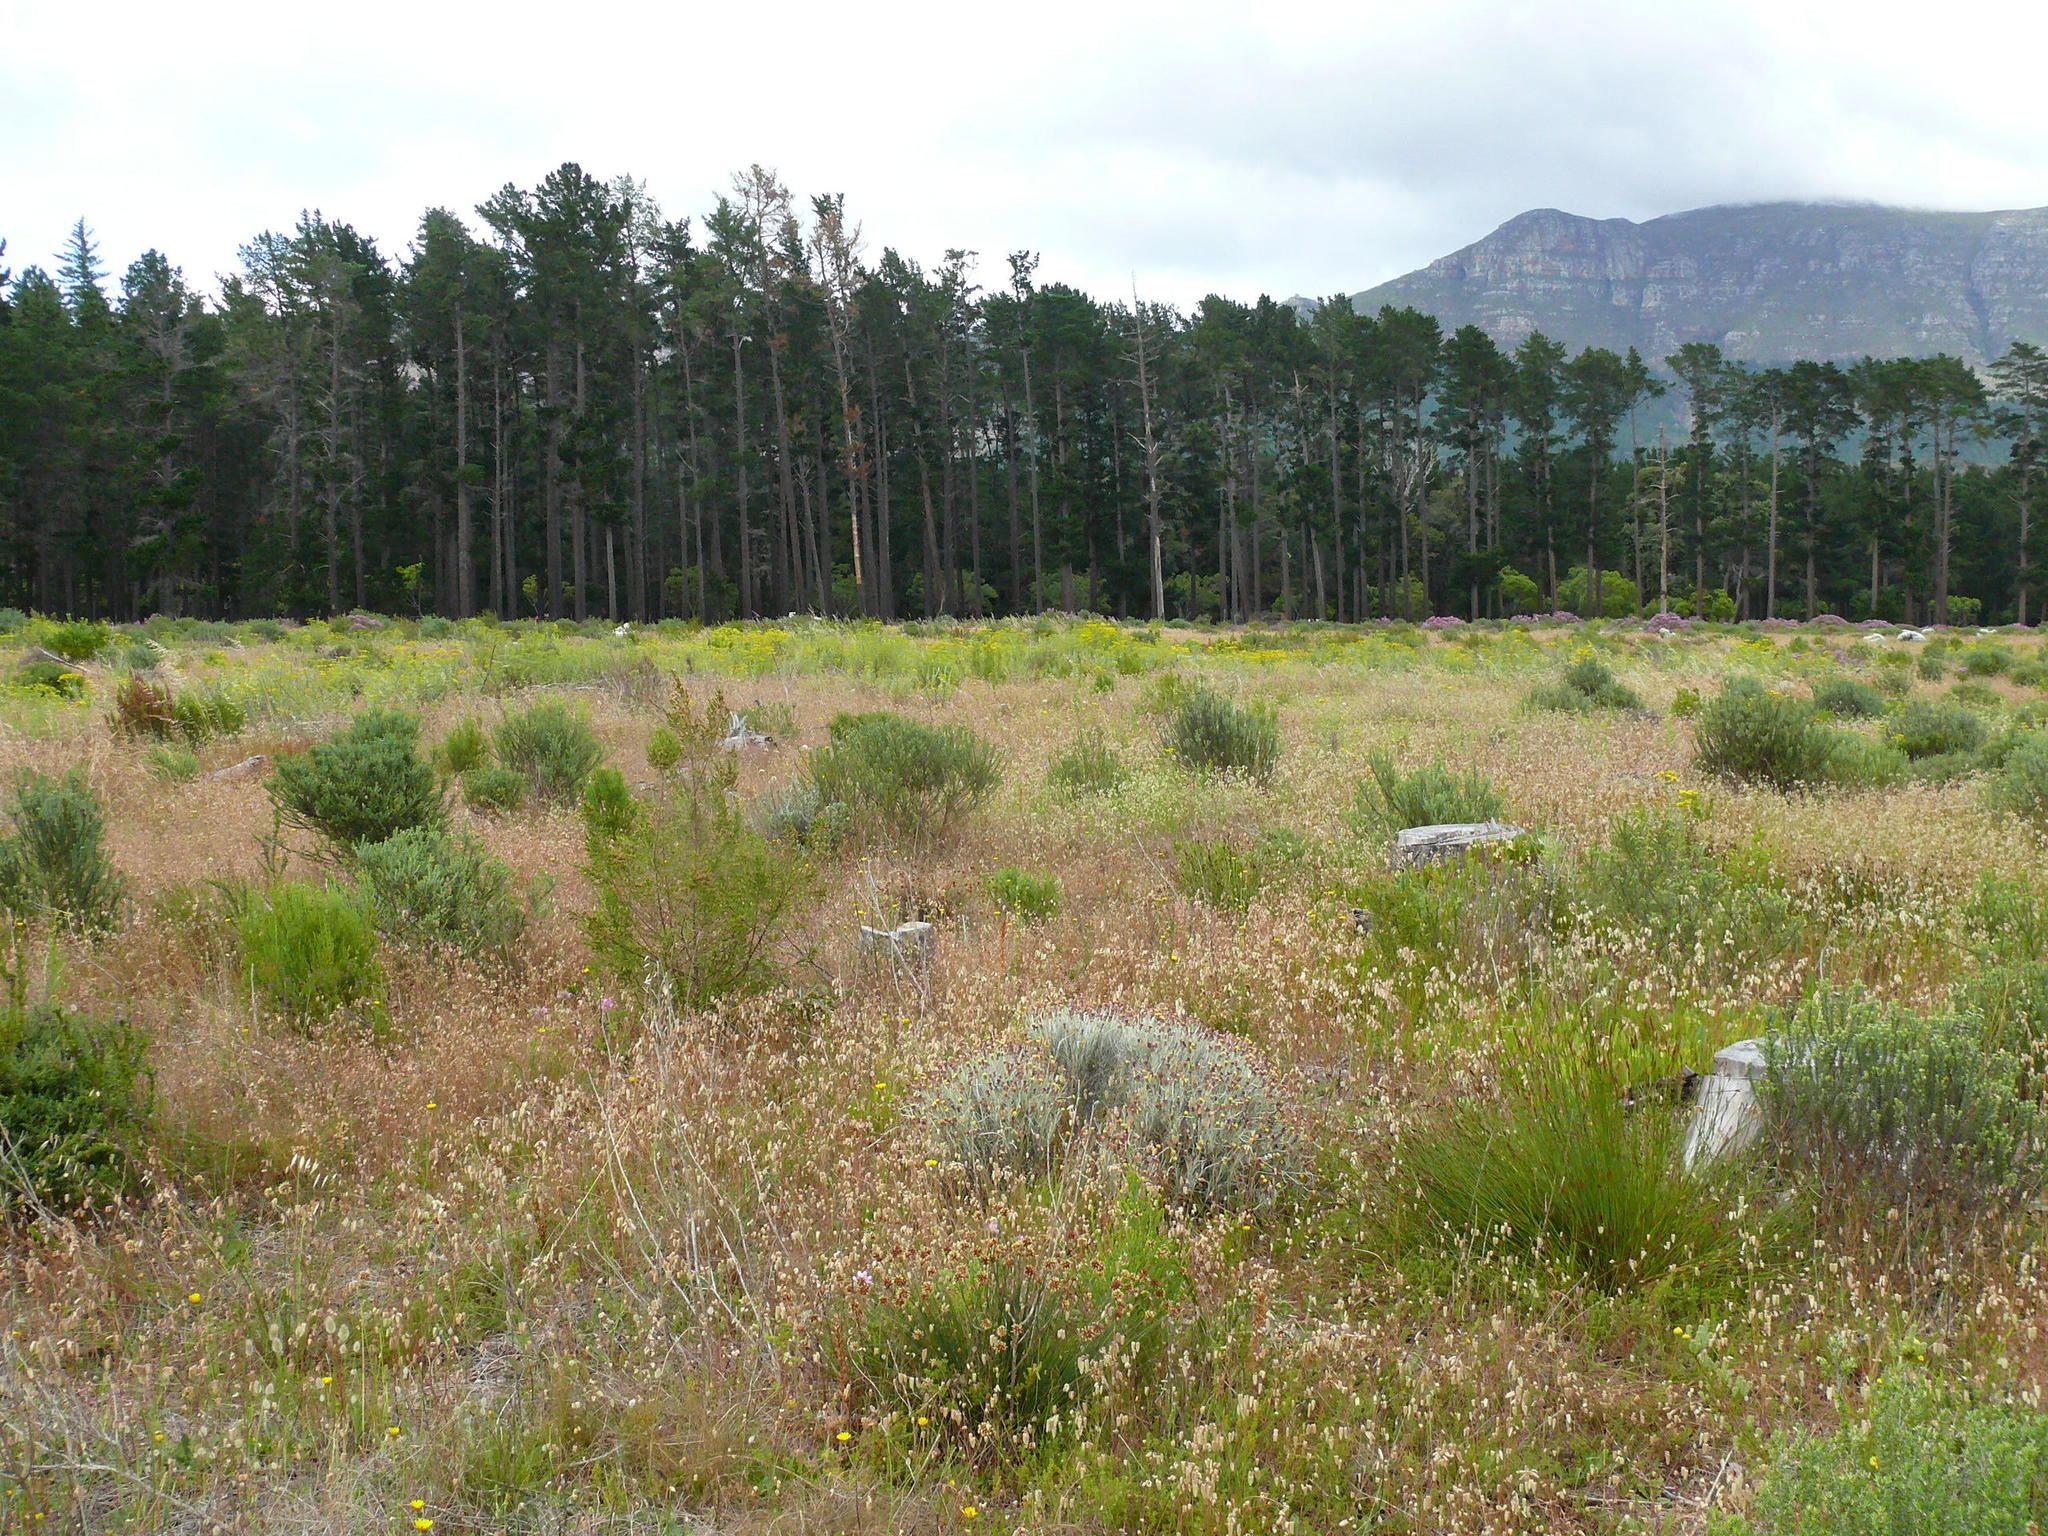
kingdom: Plantae
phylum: Tracheophyta
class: Liliopsida
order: Poales
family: Poaceae
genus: Briza
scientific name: Briza maxima
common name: Big quakinggrass
